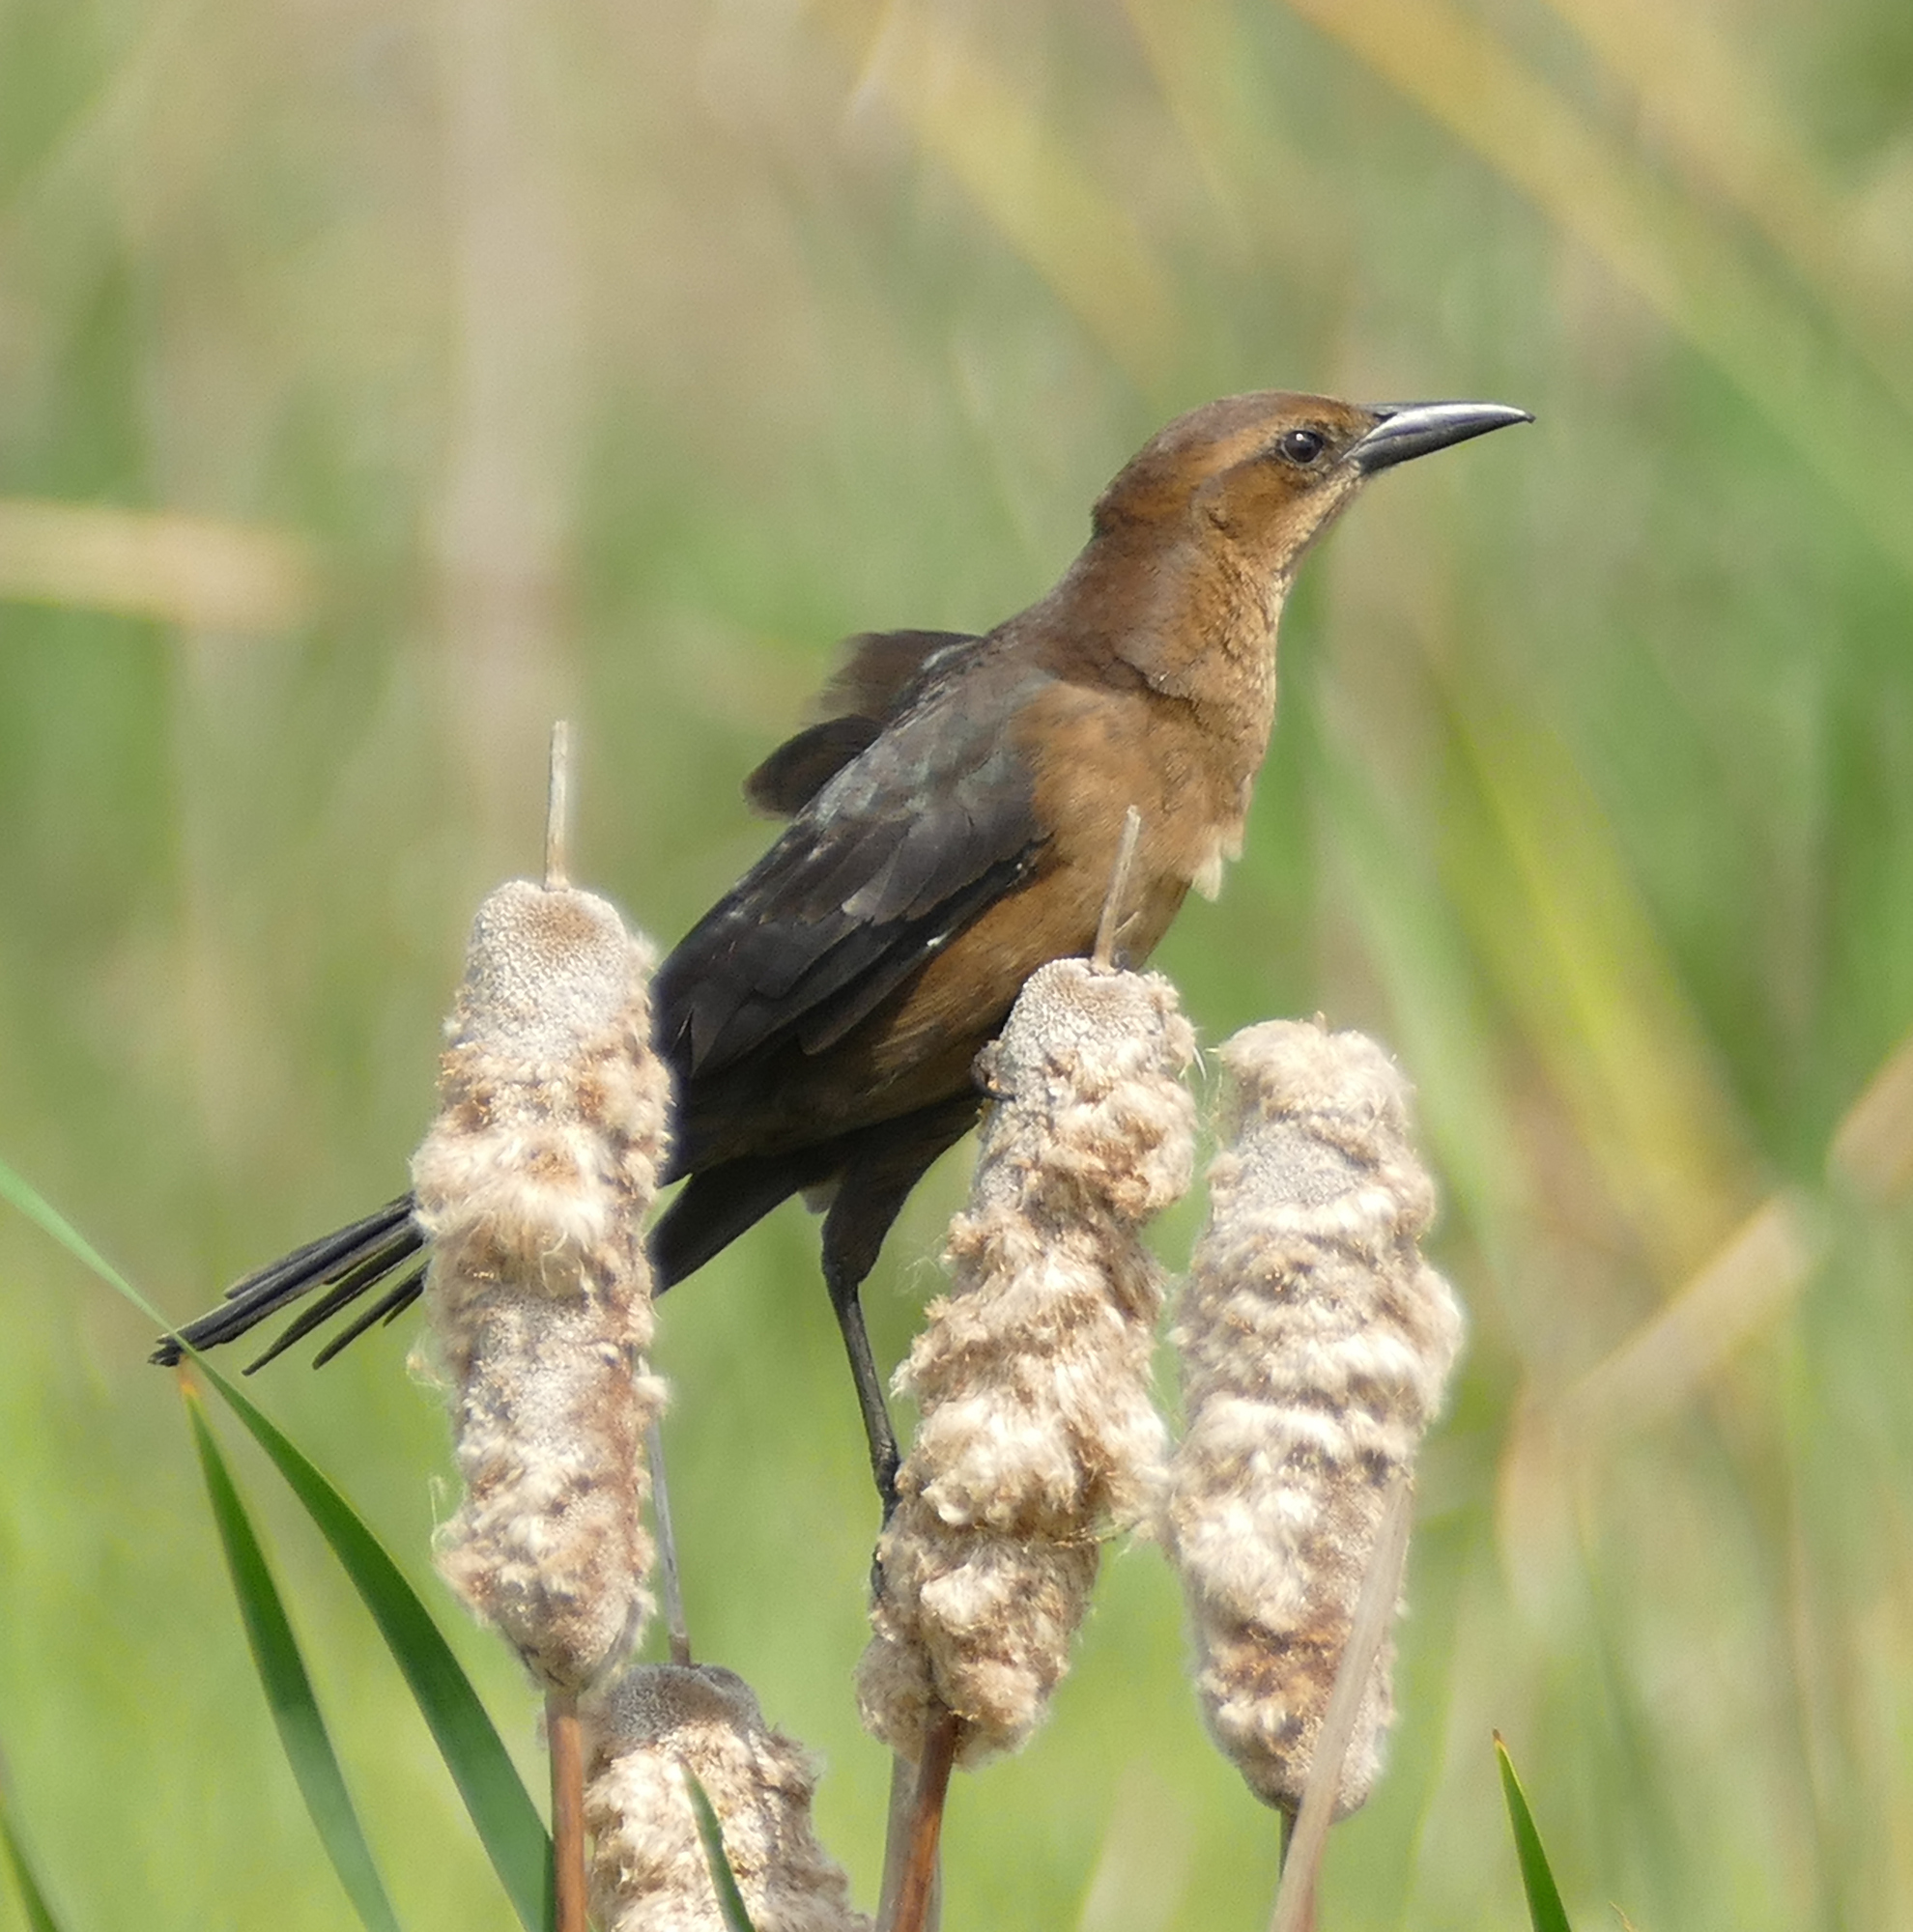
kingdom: Animalia
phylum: Chordata
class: Aves
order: Passeriformes
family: Icteridae
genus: Quiscalus
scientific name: Quiscalus major
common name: Boat-tailed grackle
